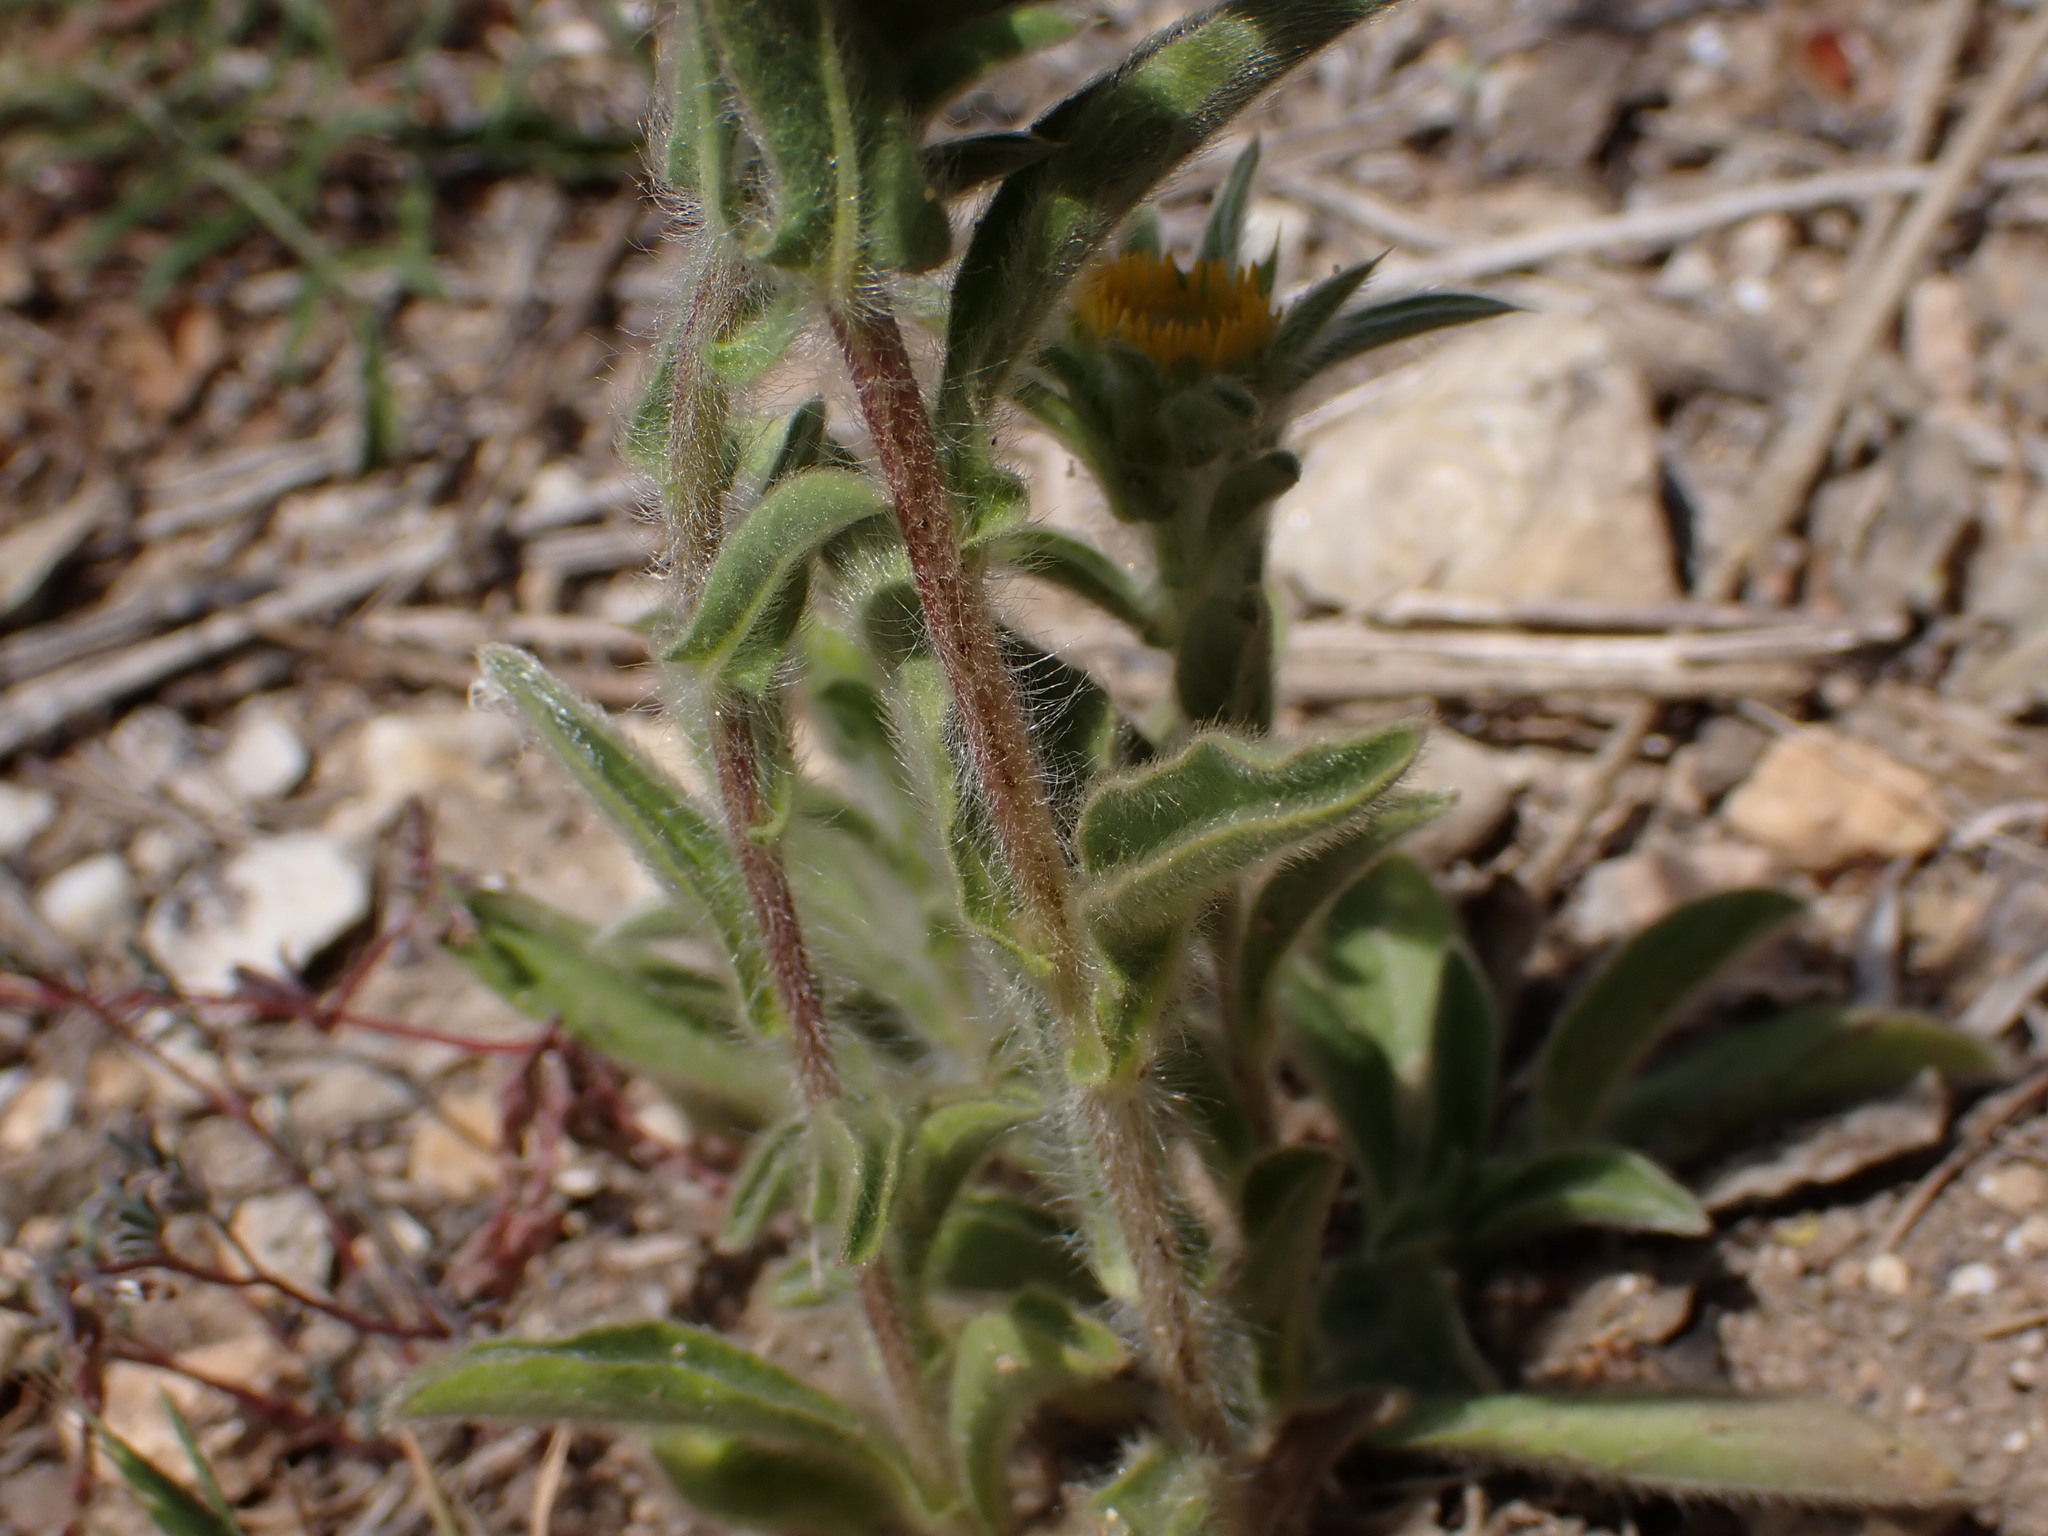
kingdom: Plantae
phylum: Tracheophyta
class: Magnoliopsida
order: Asterales
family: Asteraceae
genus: Pallenis
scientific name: Pallenis spinosa
